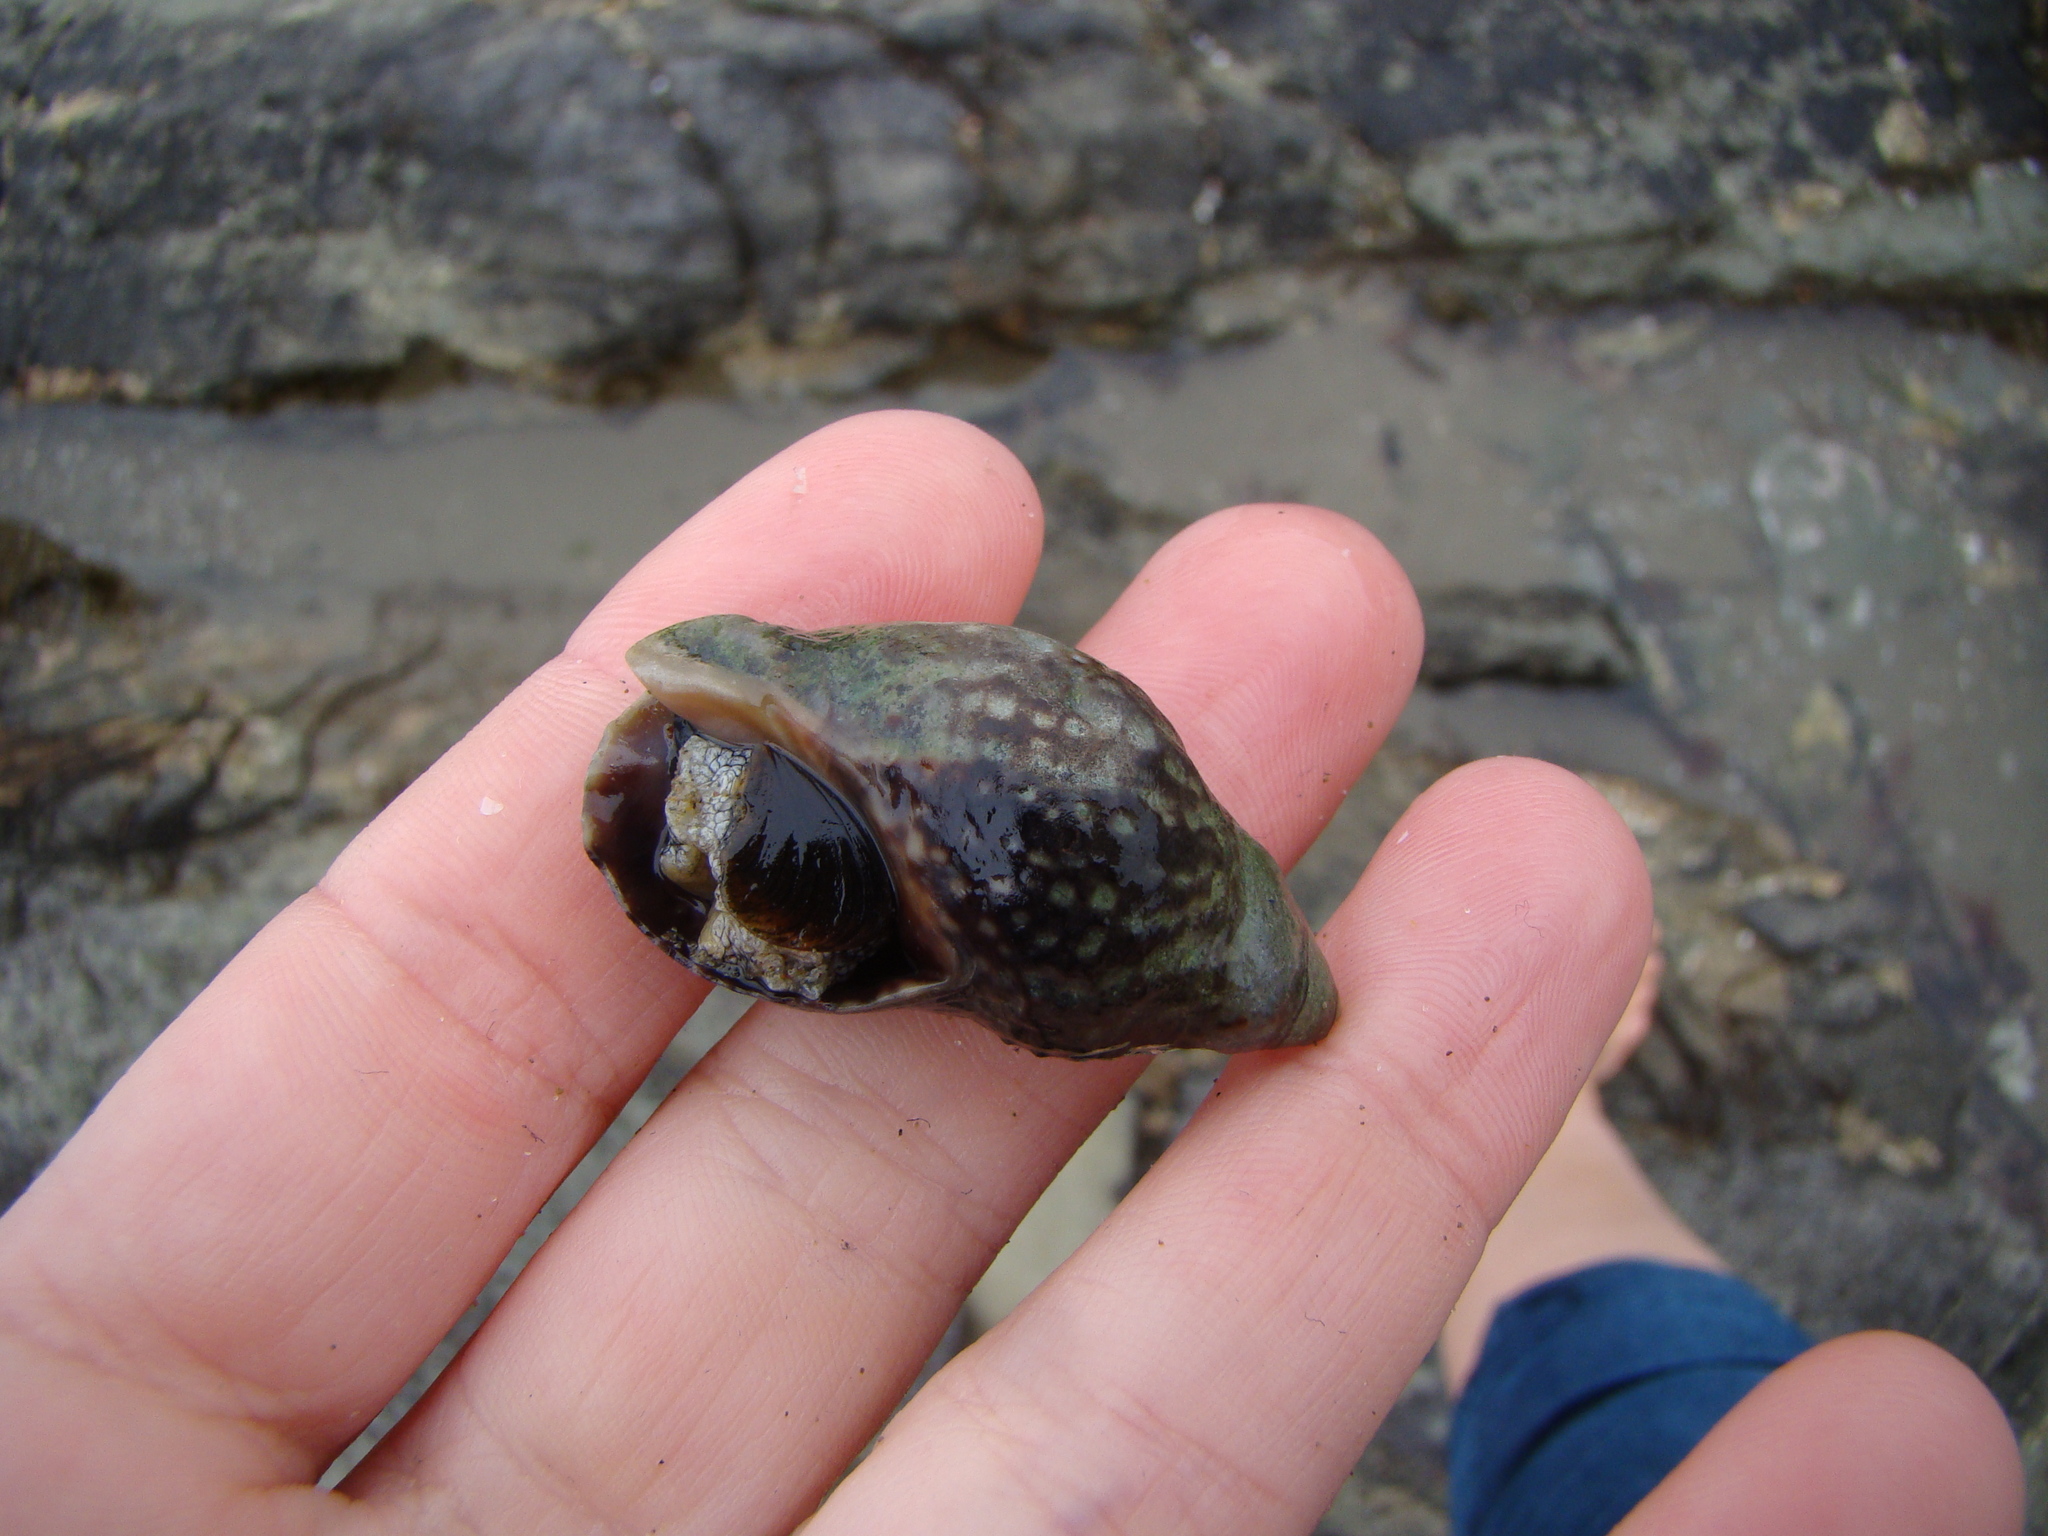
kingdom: Animalia
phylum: Mollusca
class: Gastropoda
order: Neogastropoda
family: Cominellidae
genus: Cominella
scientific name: Cominella maculosa
